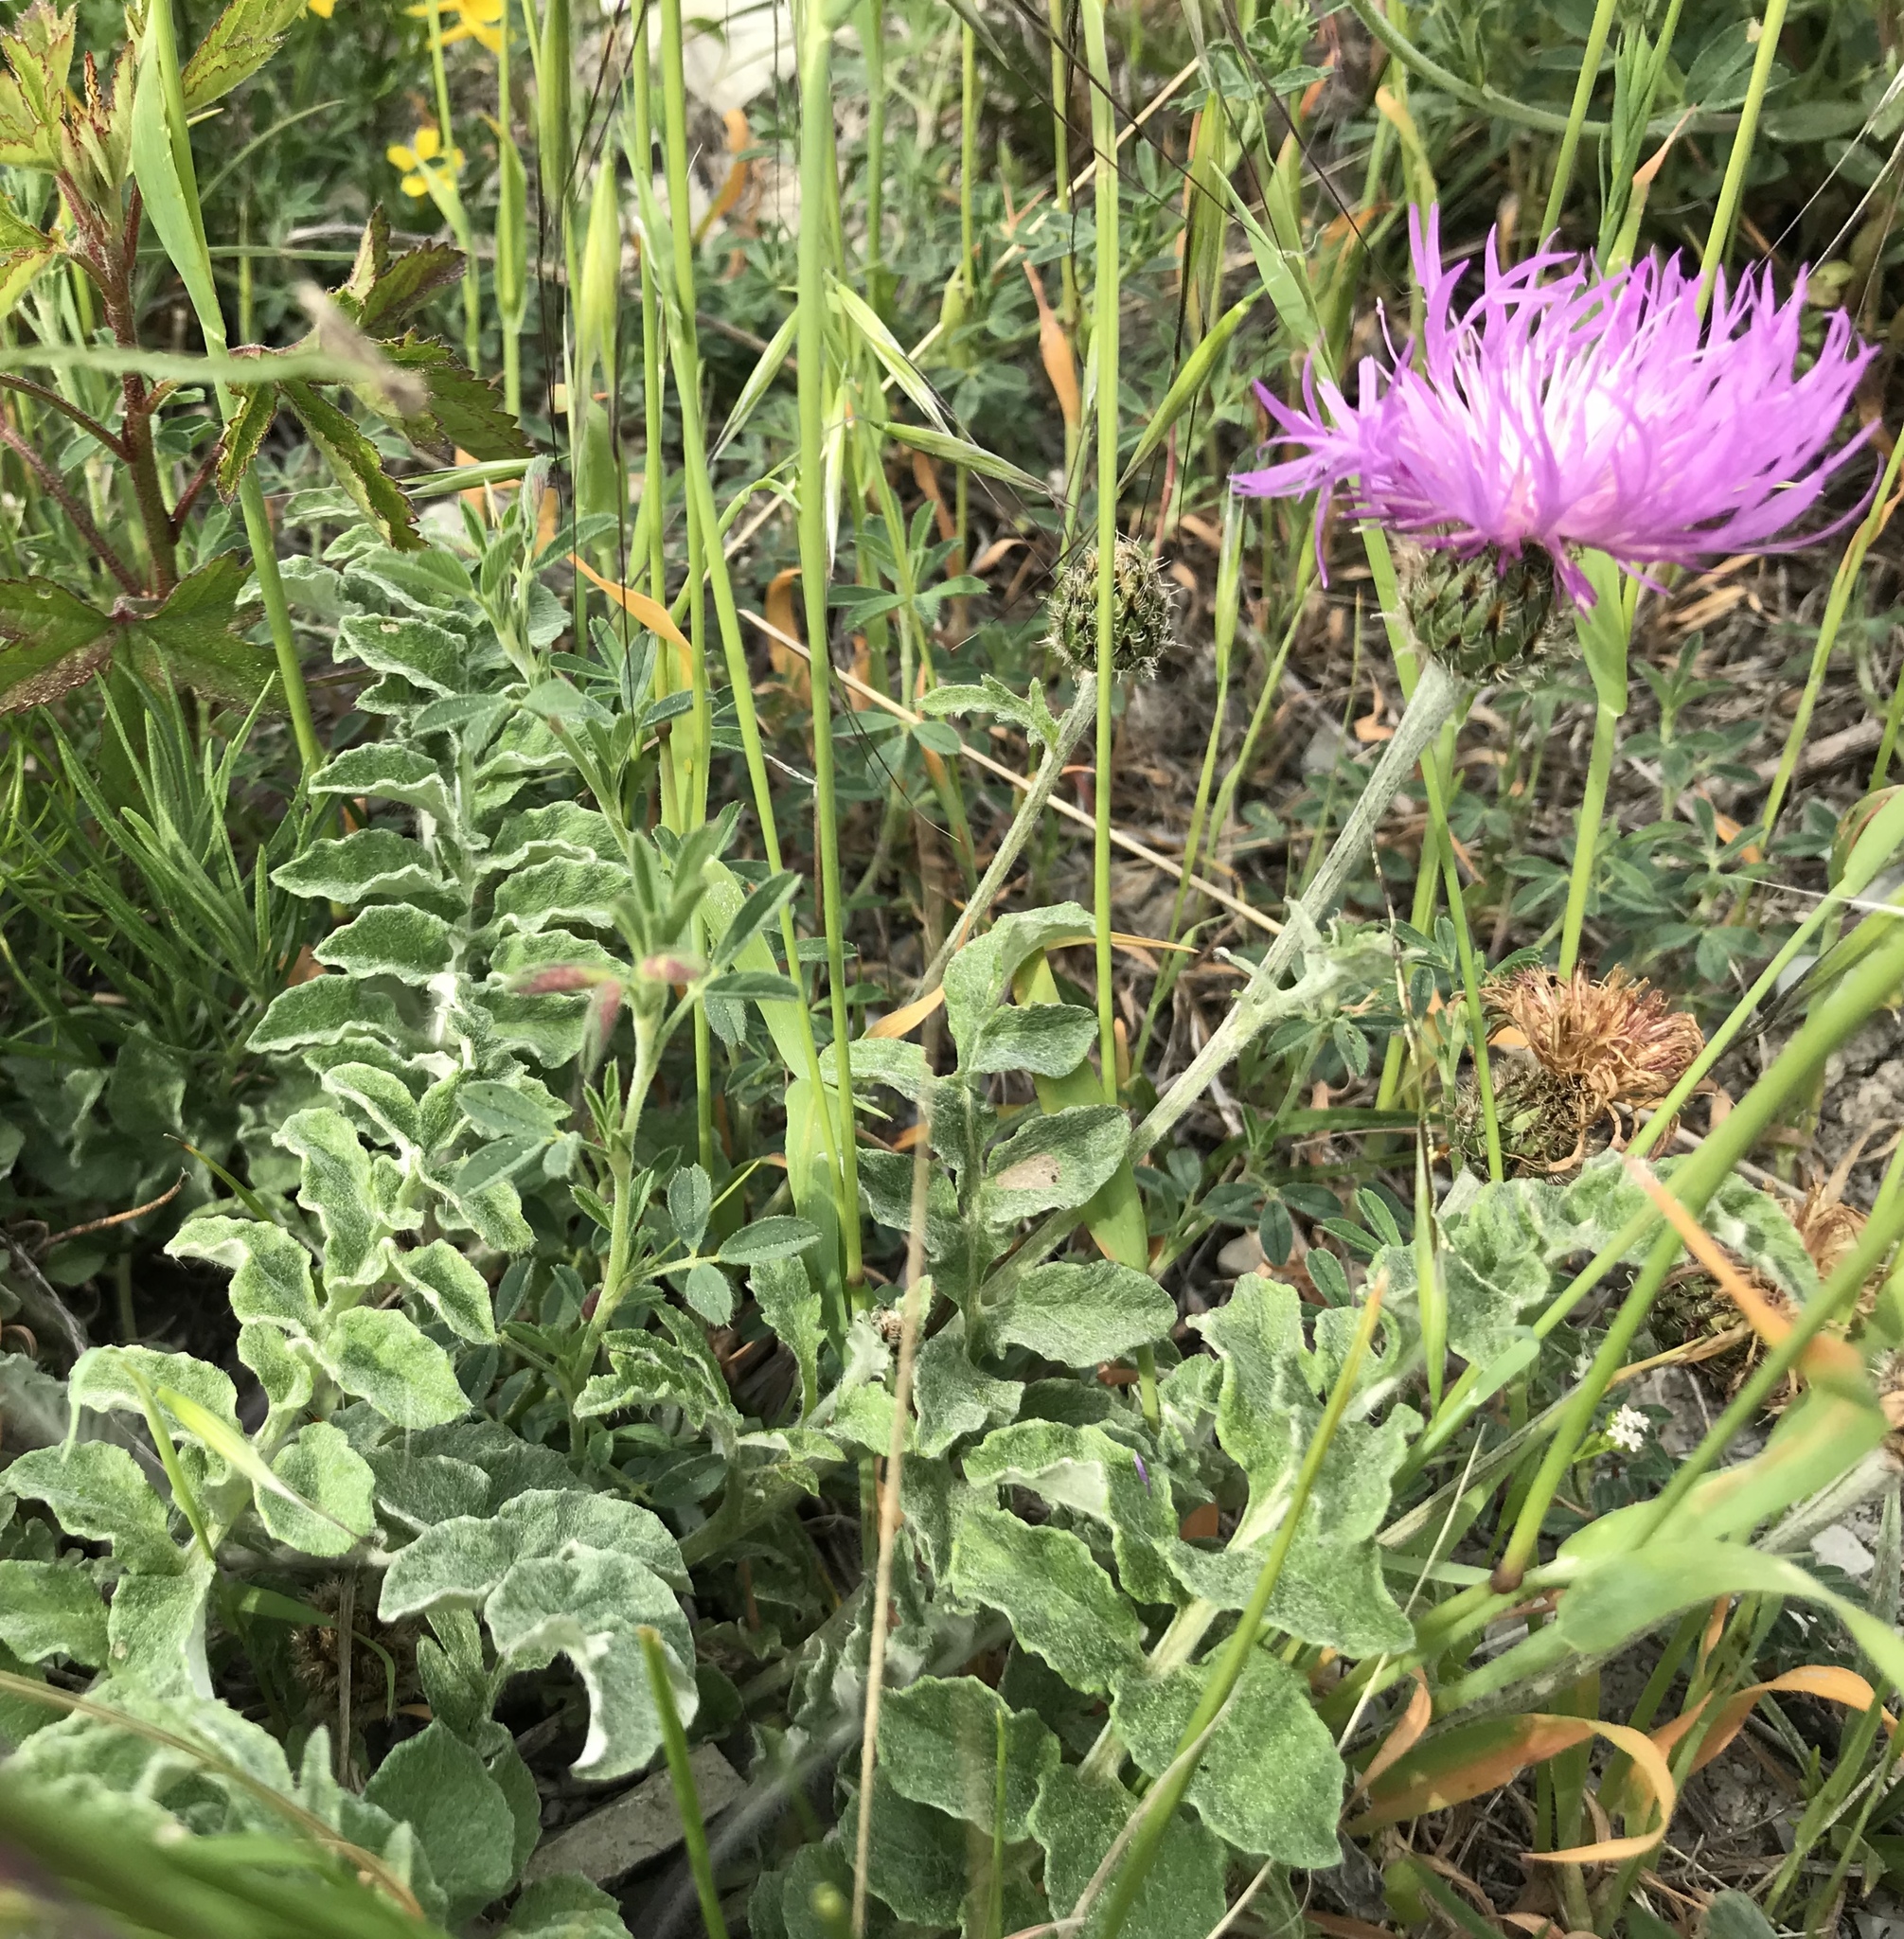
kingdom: Plantae
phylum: Tracheophyta
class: Magnoliopsida
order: Asterales
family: Asteraceae
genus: Psephellus
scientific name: Psephellus declinatus
